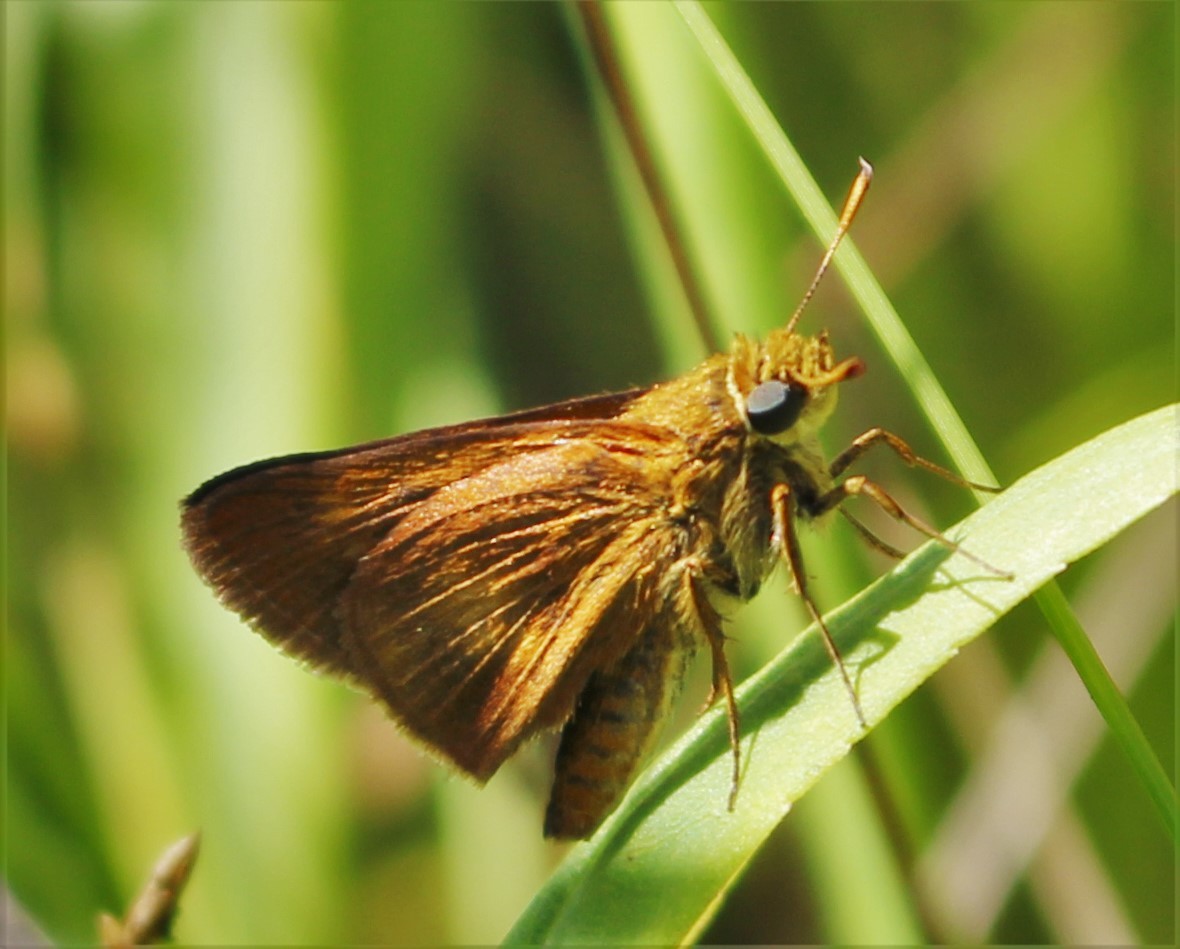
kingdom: Animalia
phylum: Arthropoda
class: Insecta
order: Lepidoptera
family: Hesperiidae
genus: Euphyes
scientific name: Euphyes conspicua
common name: Black dash
